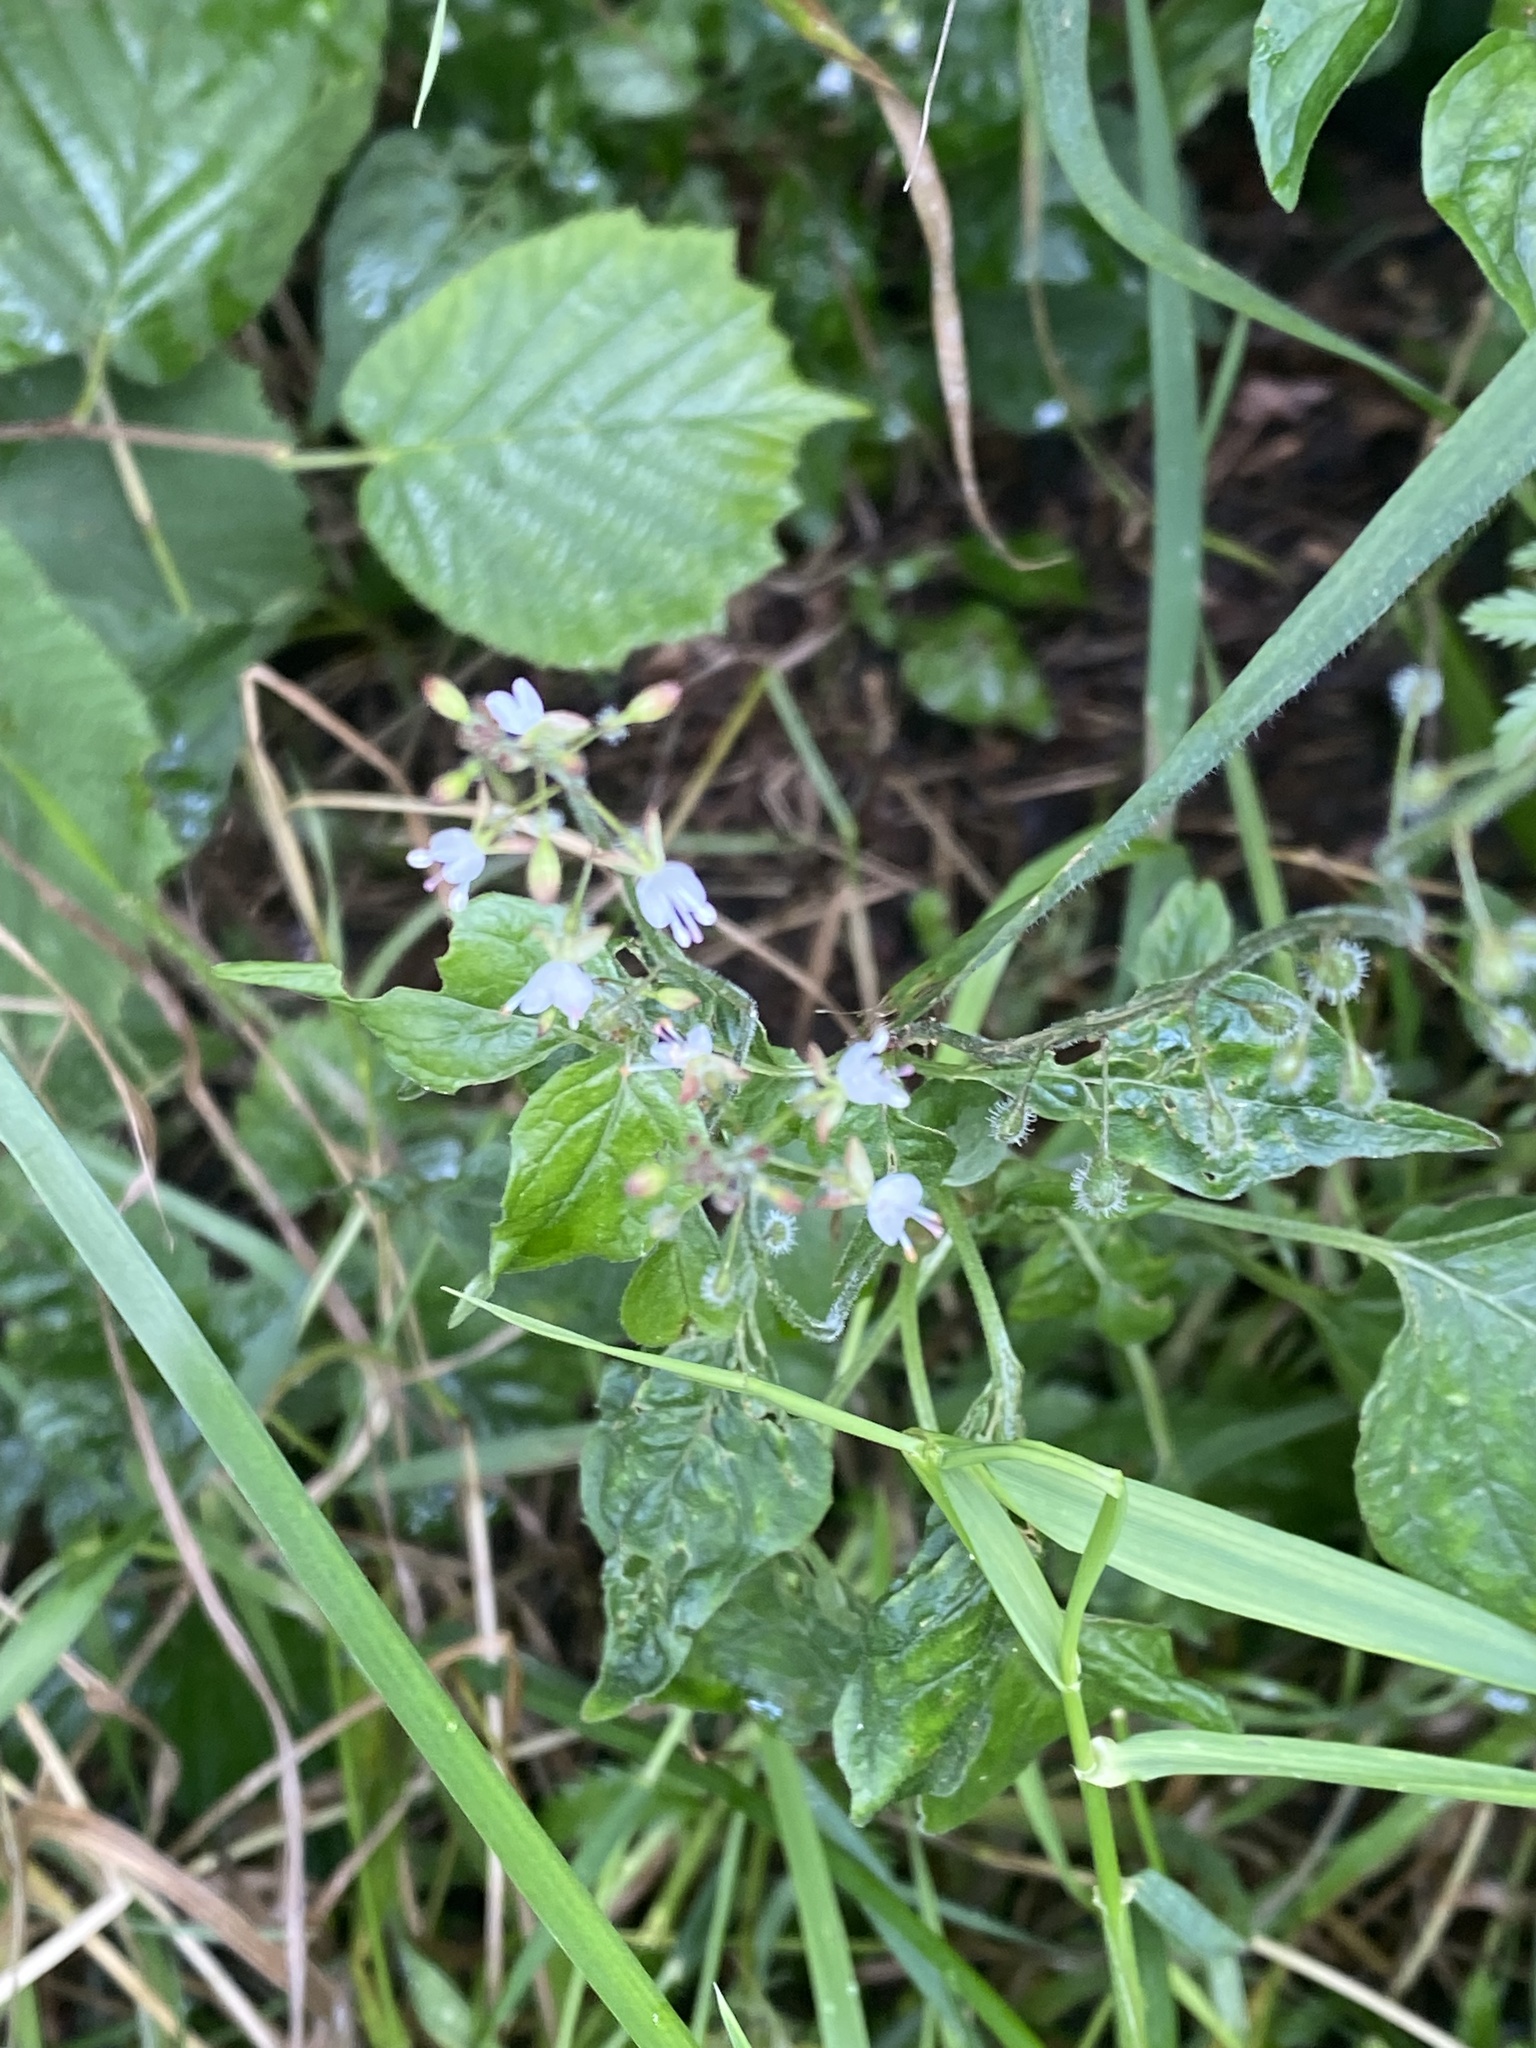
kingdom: Plantae
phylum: Tracheophyta
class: Magnoliopsida
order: Myrtales
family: Onagraceae
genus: Circaea
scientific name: Circaea lutetiana
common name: Enchanter's-nightshade
